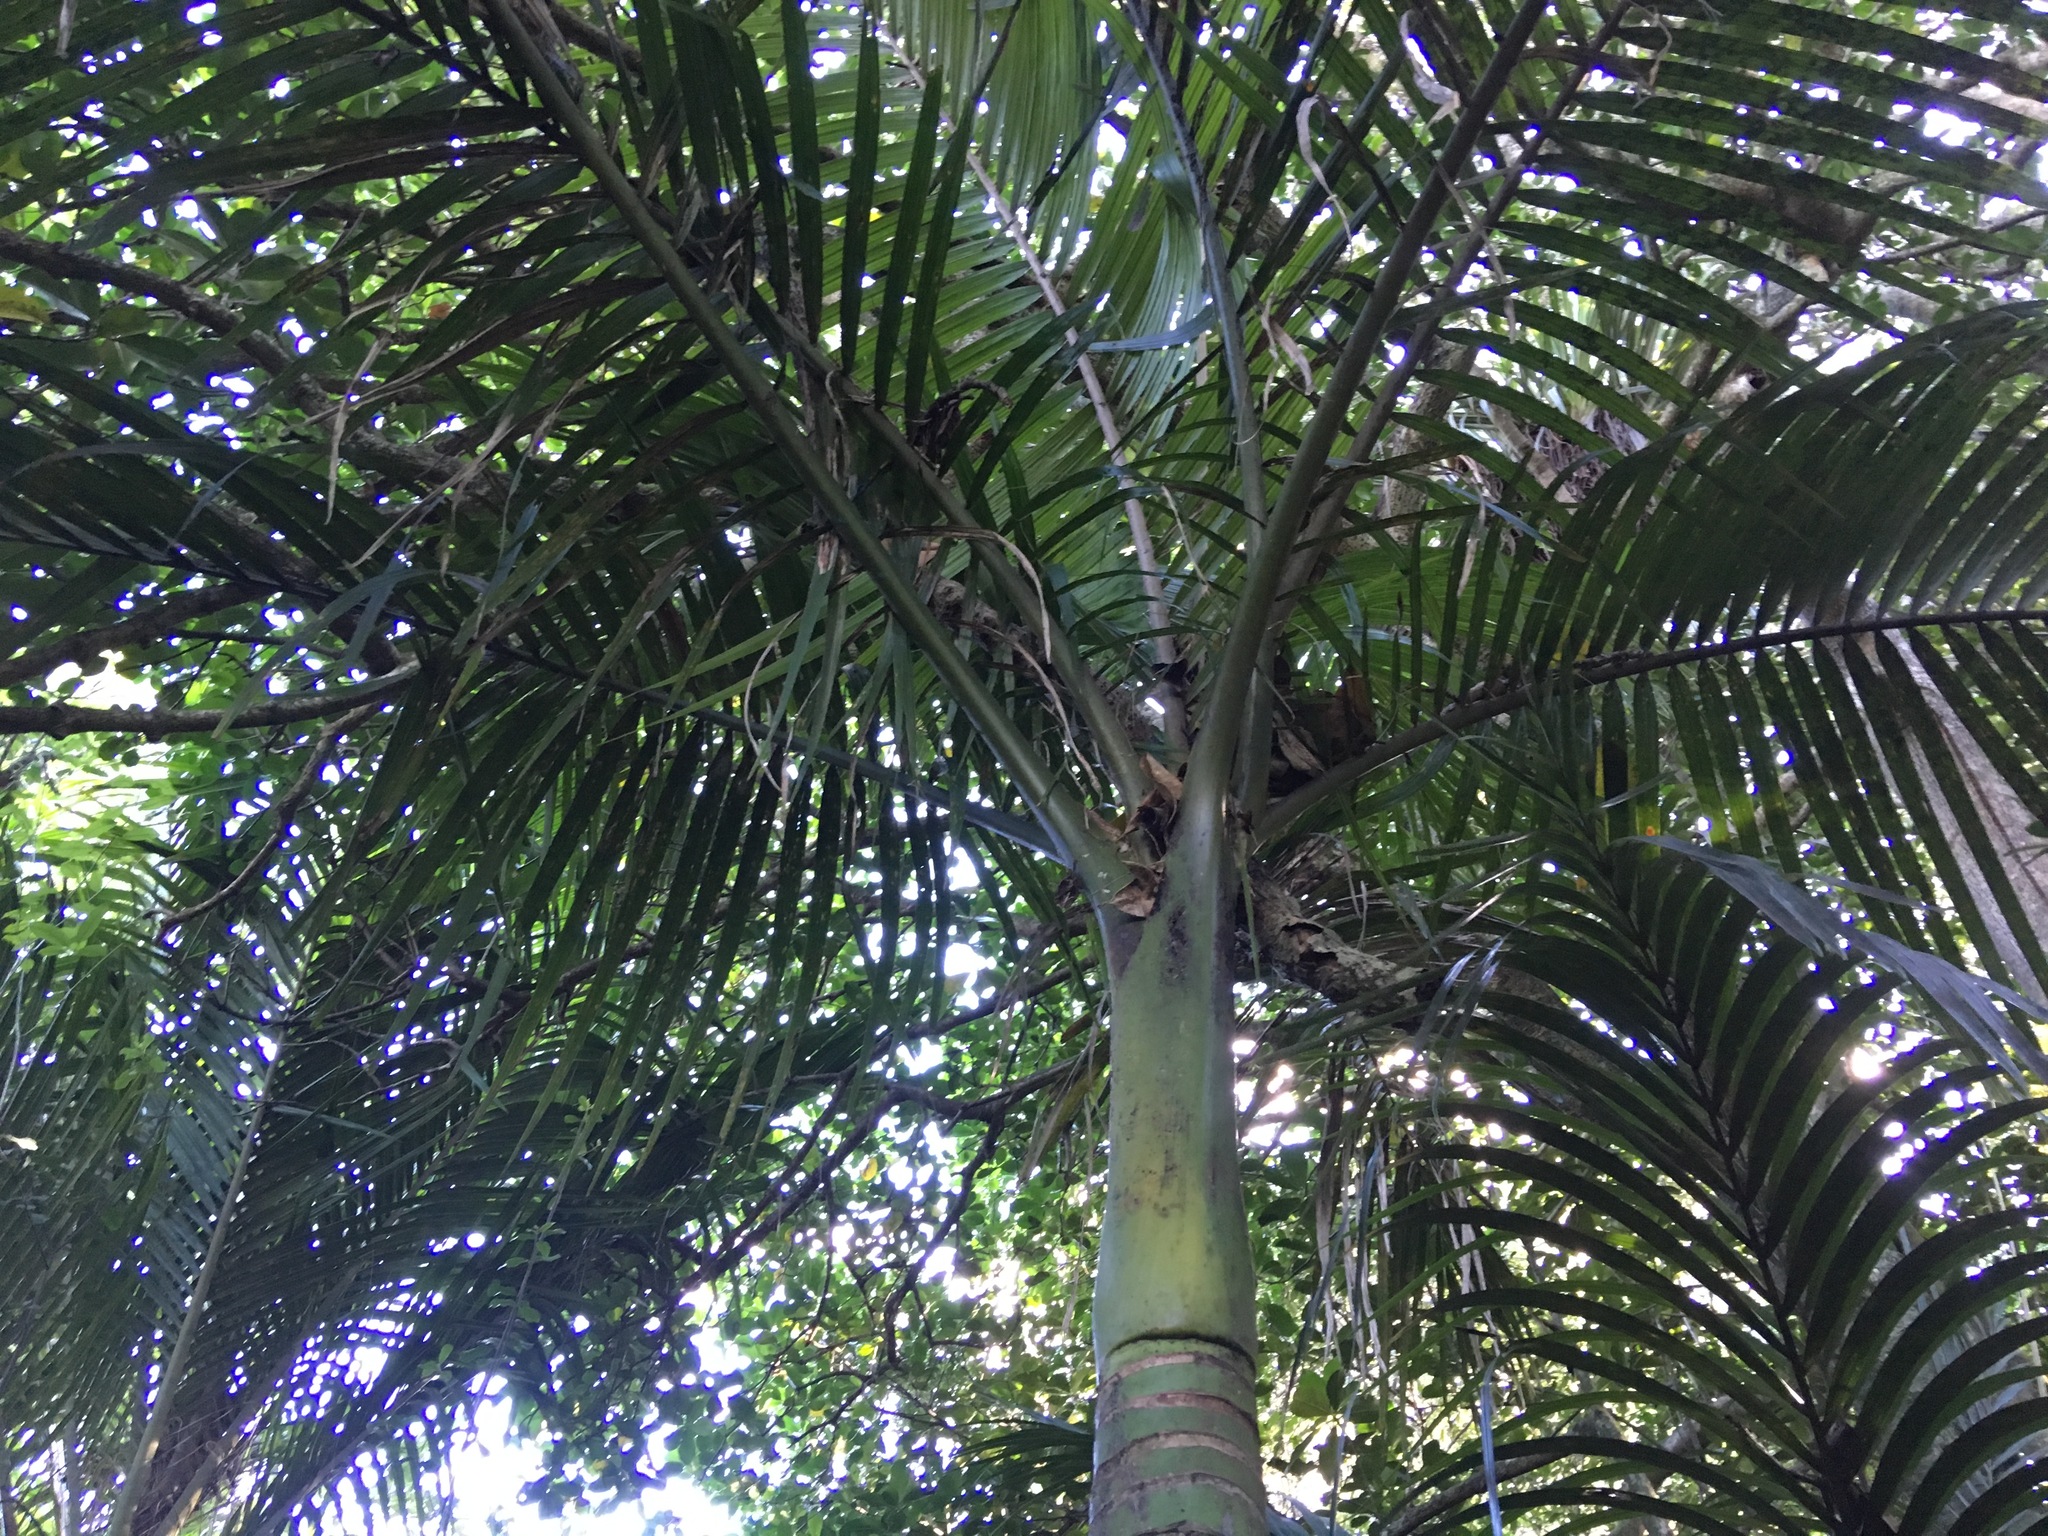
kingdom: Plantae
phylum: Tracheophyta
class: Liliopsida
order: Arecales
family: Arecaceae
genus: Rhopalostylis
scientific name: Rhopalostylis sapida
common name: Feather-duster palm
